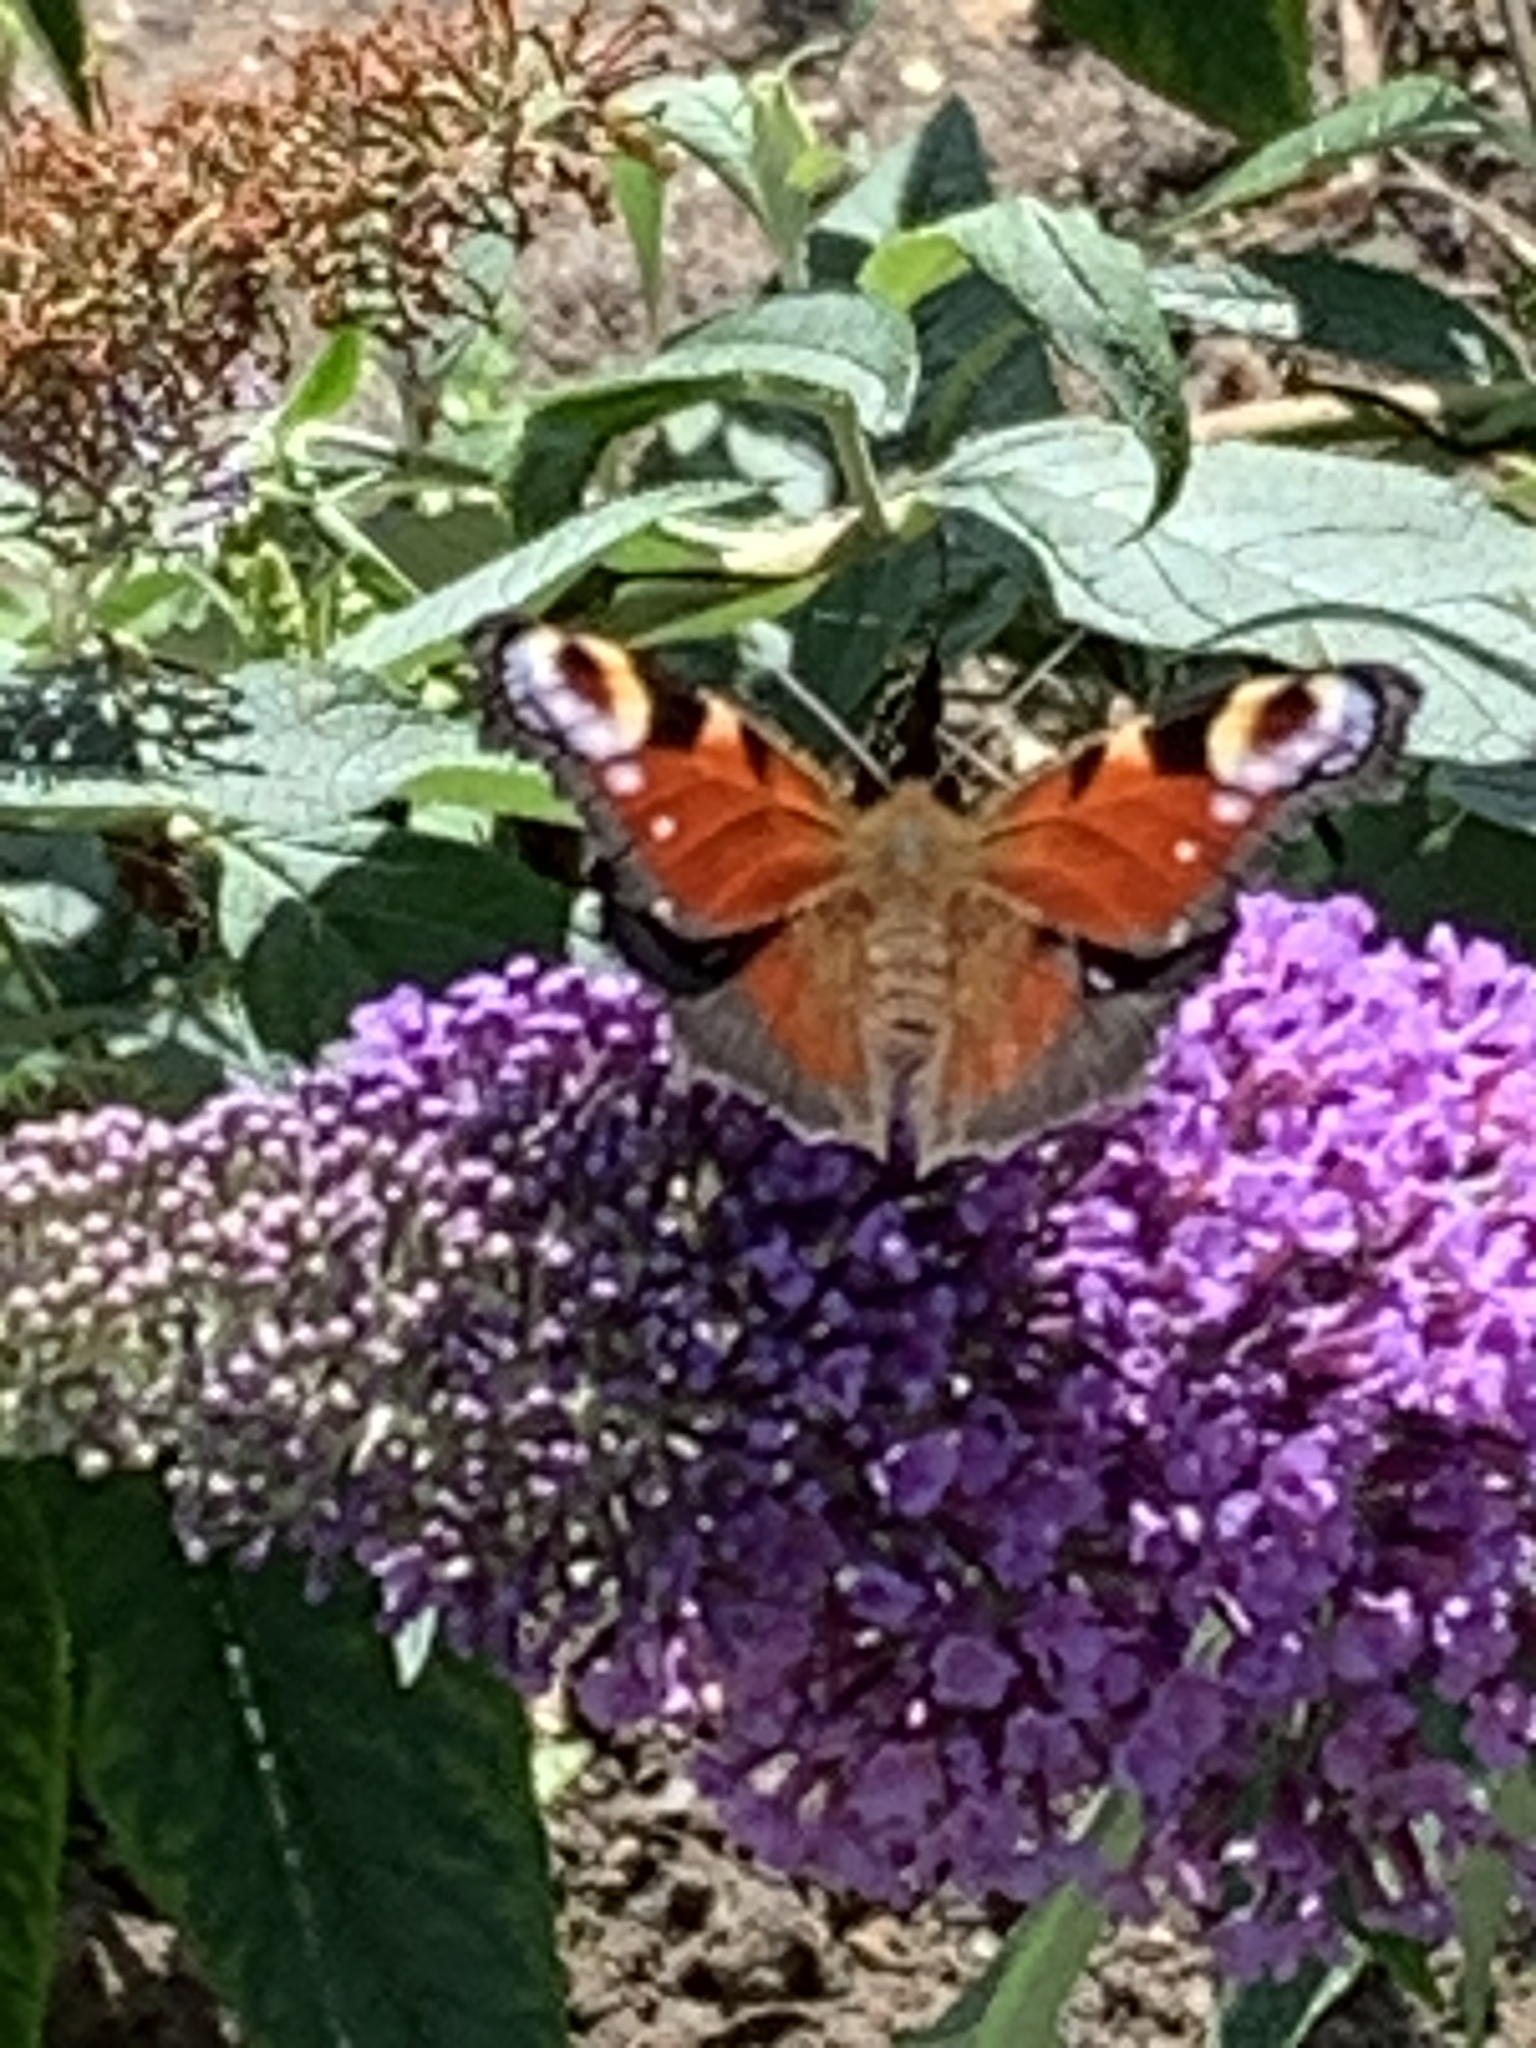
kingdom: Animalia
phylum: Arthropoda
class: Insecta
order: Lepidoptera
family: Nymphalidae
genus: Aglais
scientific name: Aglais io
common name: Peacock
